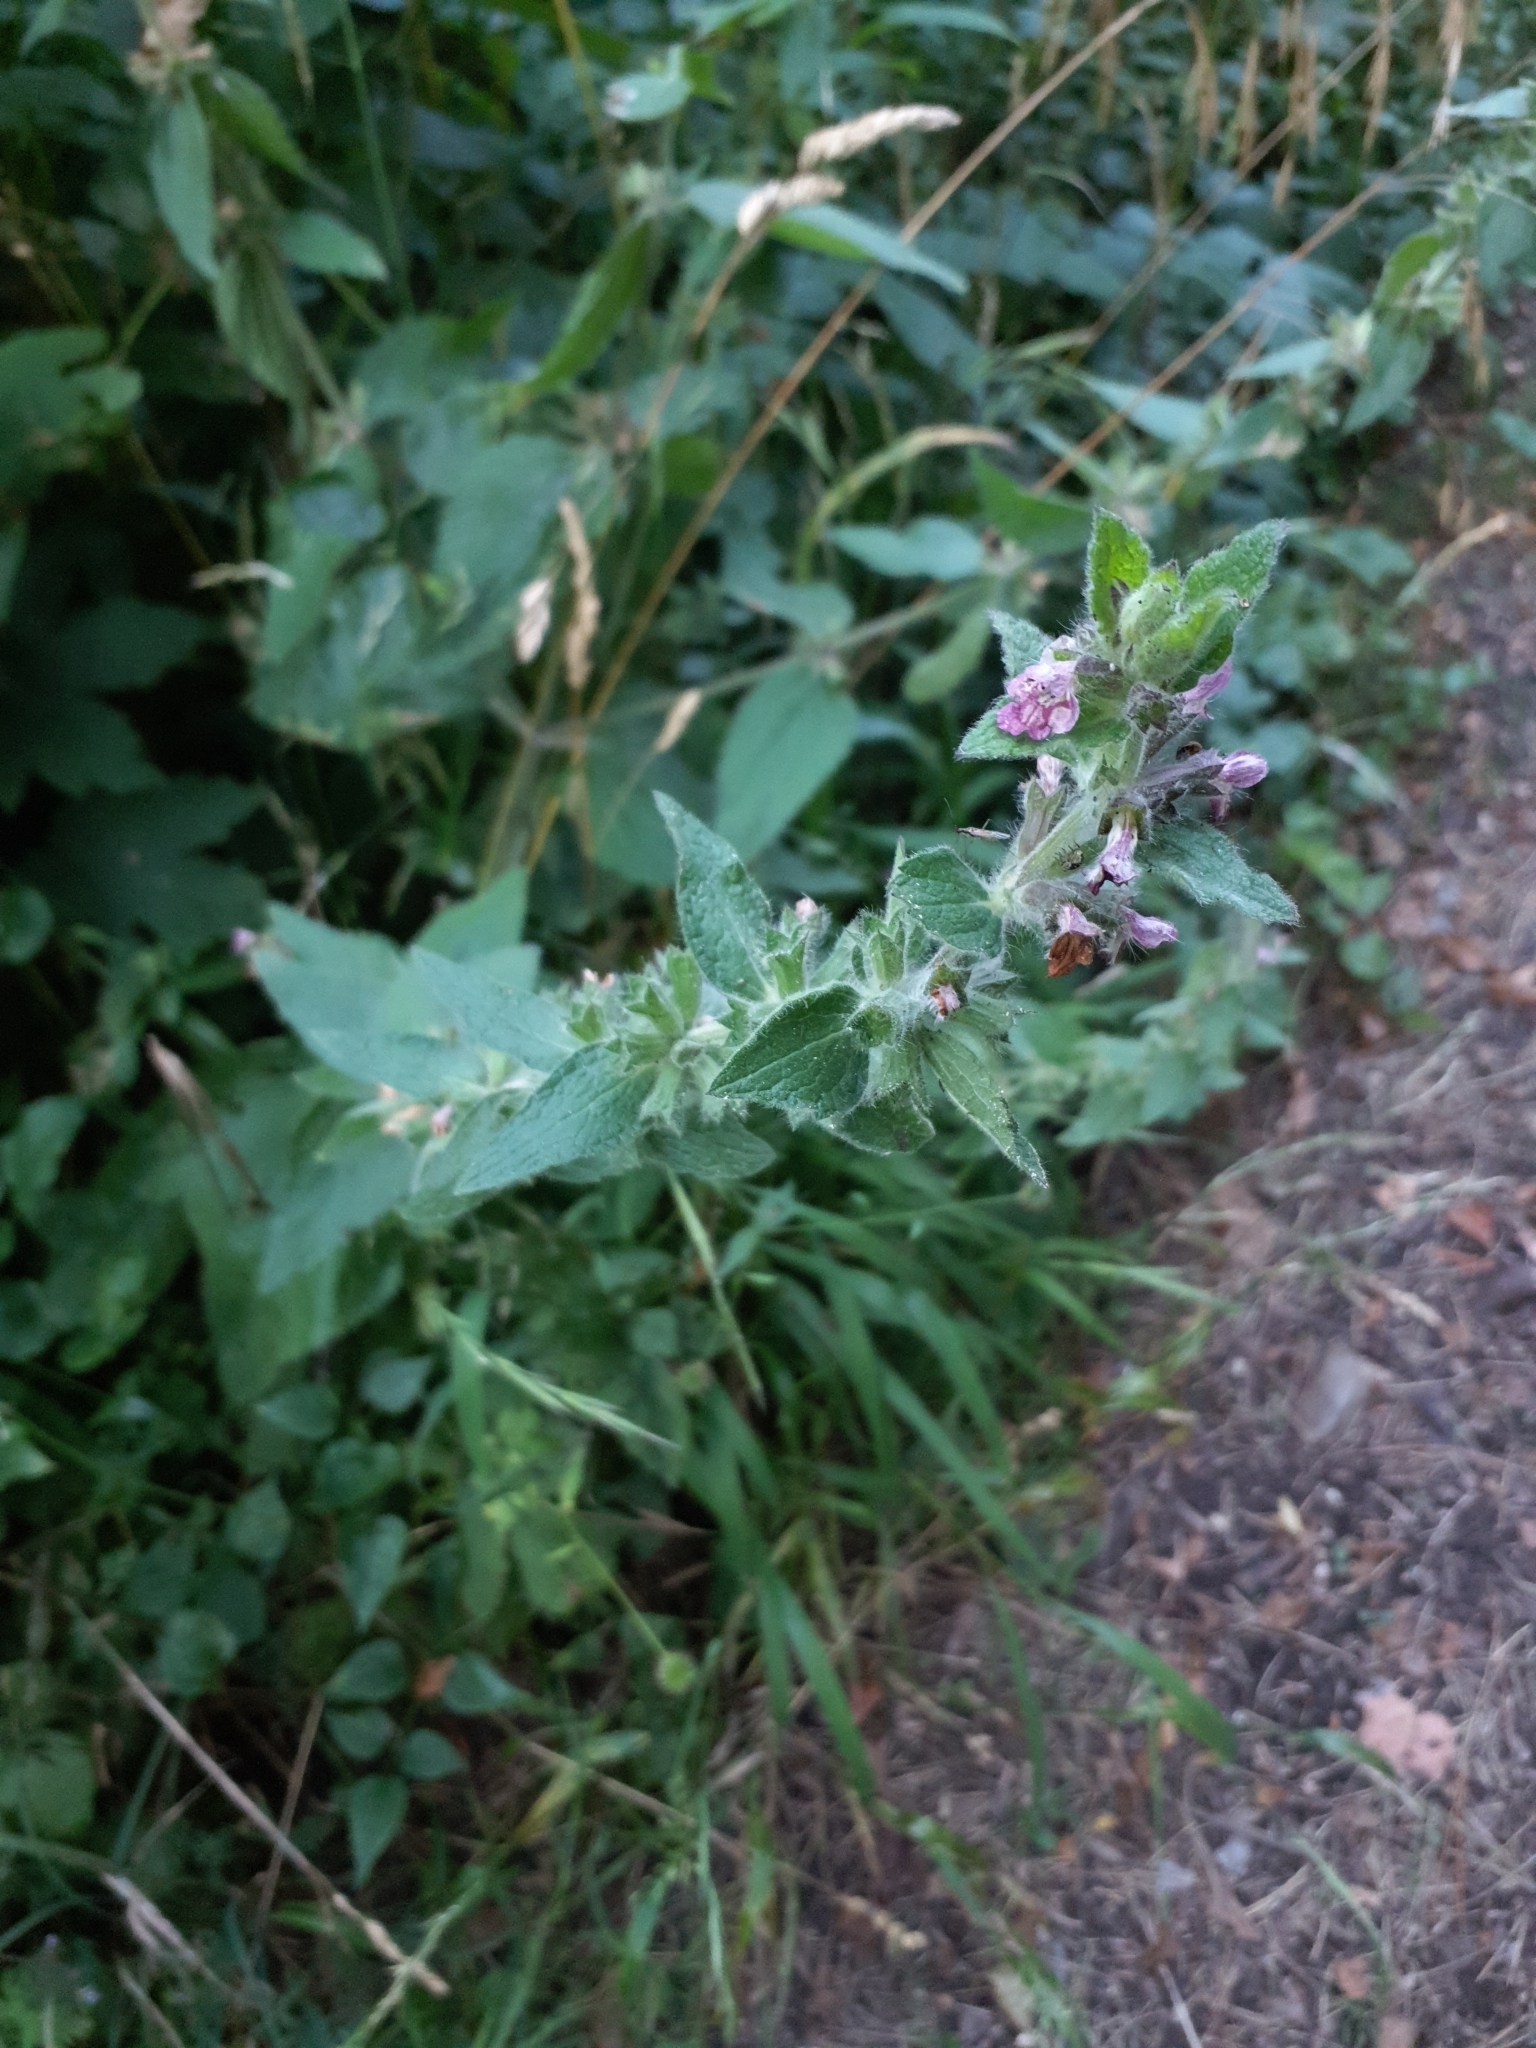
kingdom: Plantae
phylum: Tracheophyta
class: Magnoliopsida
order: Lamiales
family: Lamiaceae
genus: Stachys
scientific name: Stachys alpina
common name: Limestone woundwort
